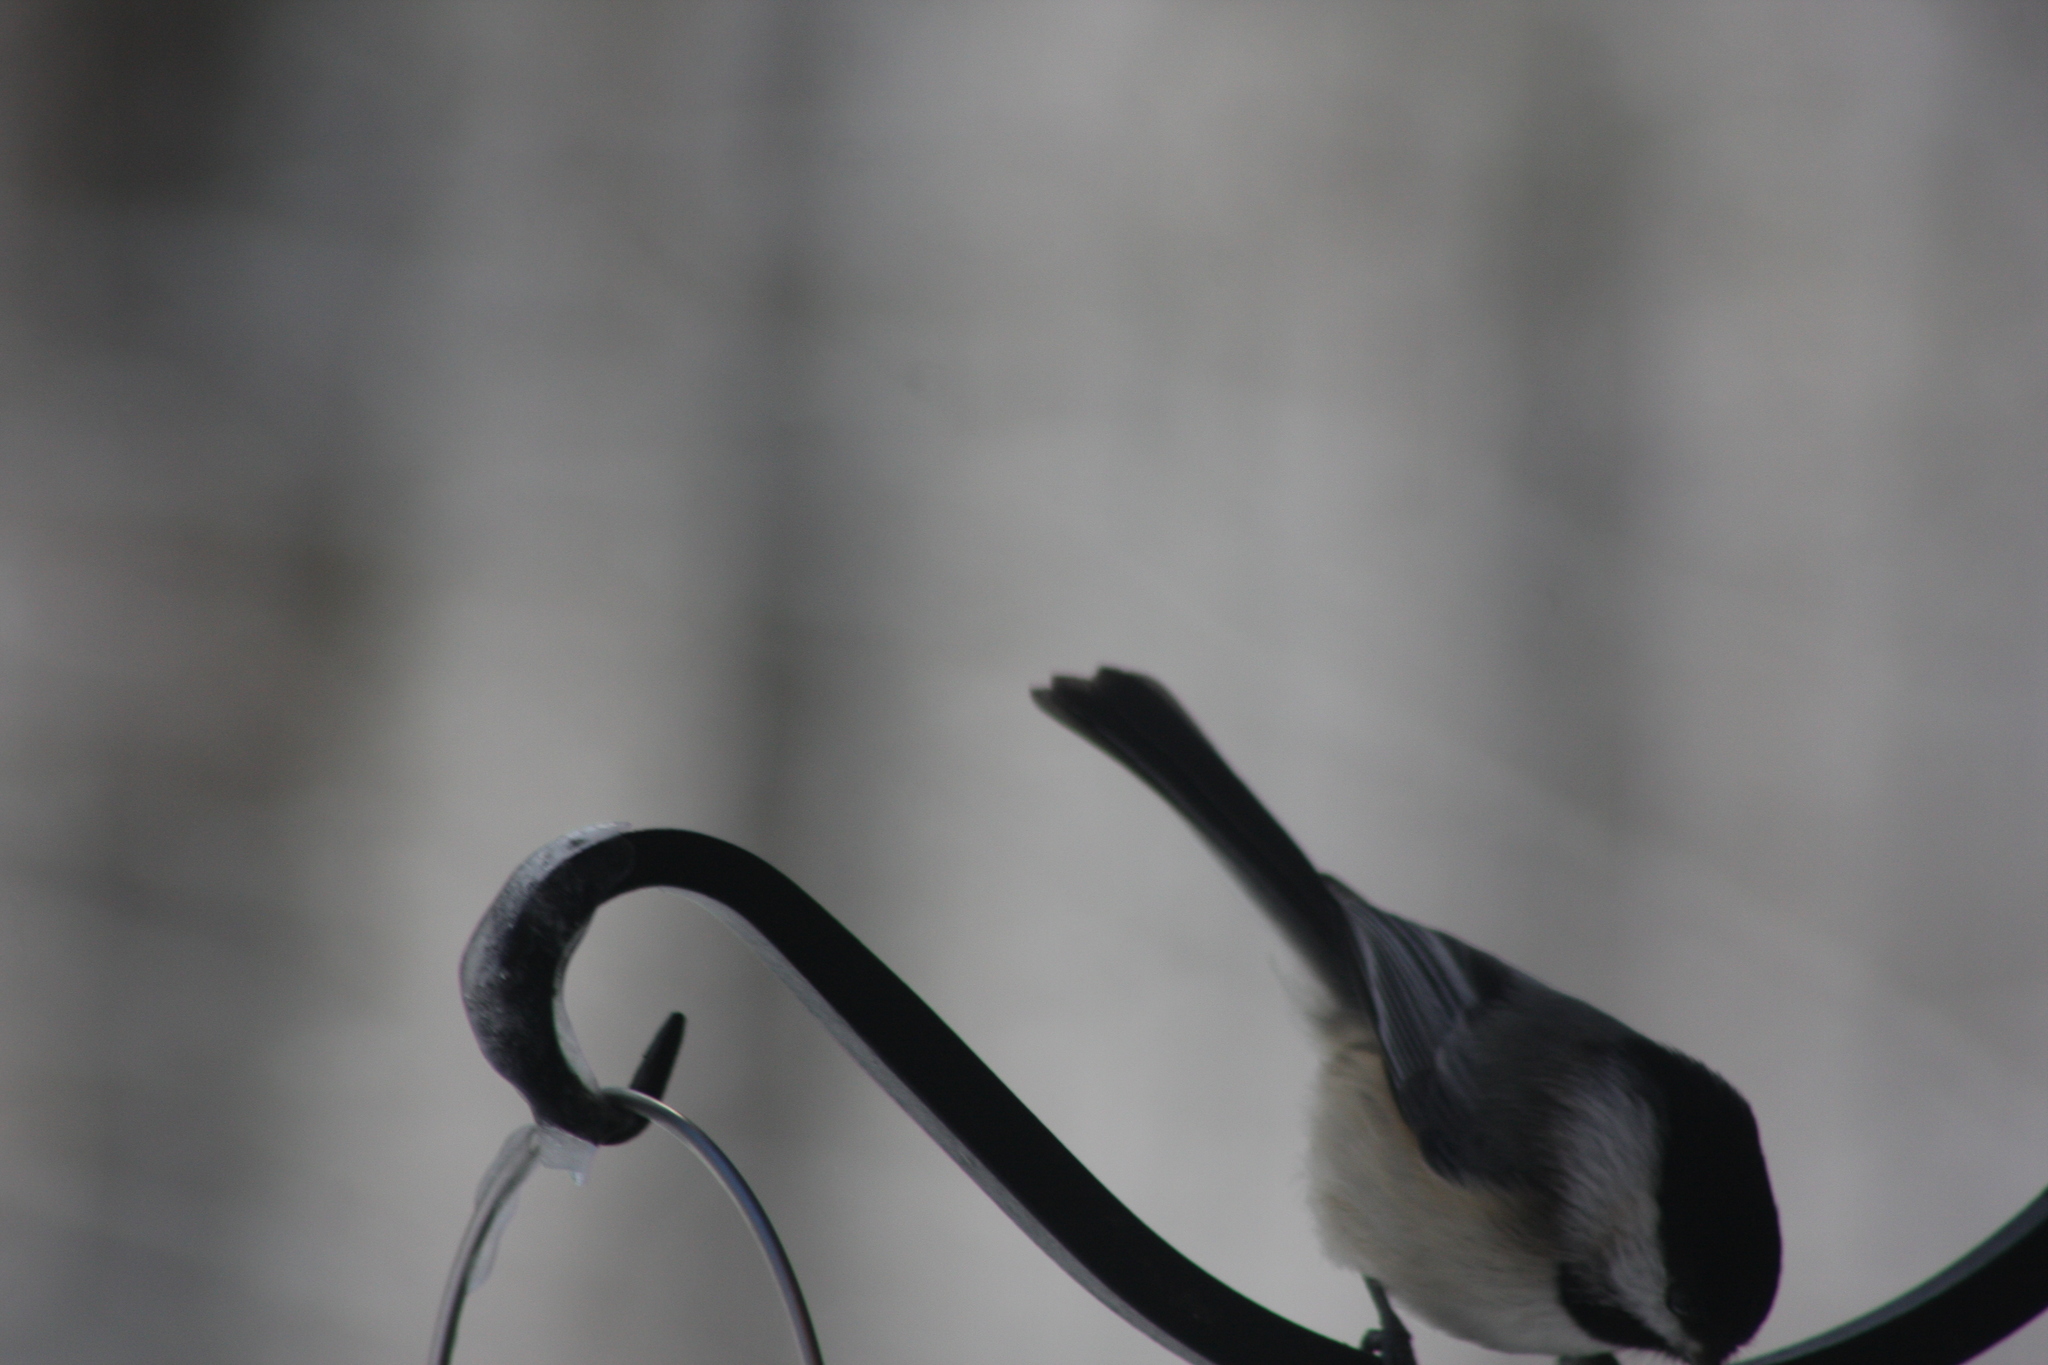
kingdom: Animalia
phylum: Chordata
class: Aves
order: Passeriformes
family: Paridae
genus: Poecile
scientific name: Poecile atricapillus
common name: Black-capped chickadee
